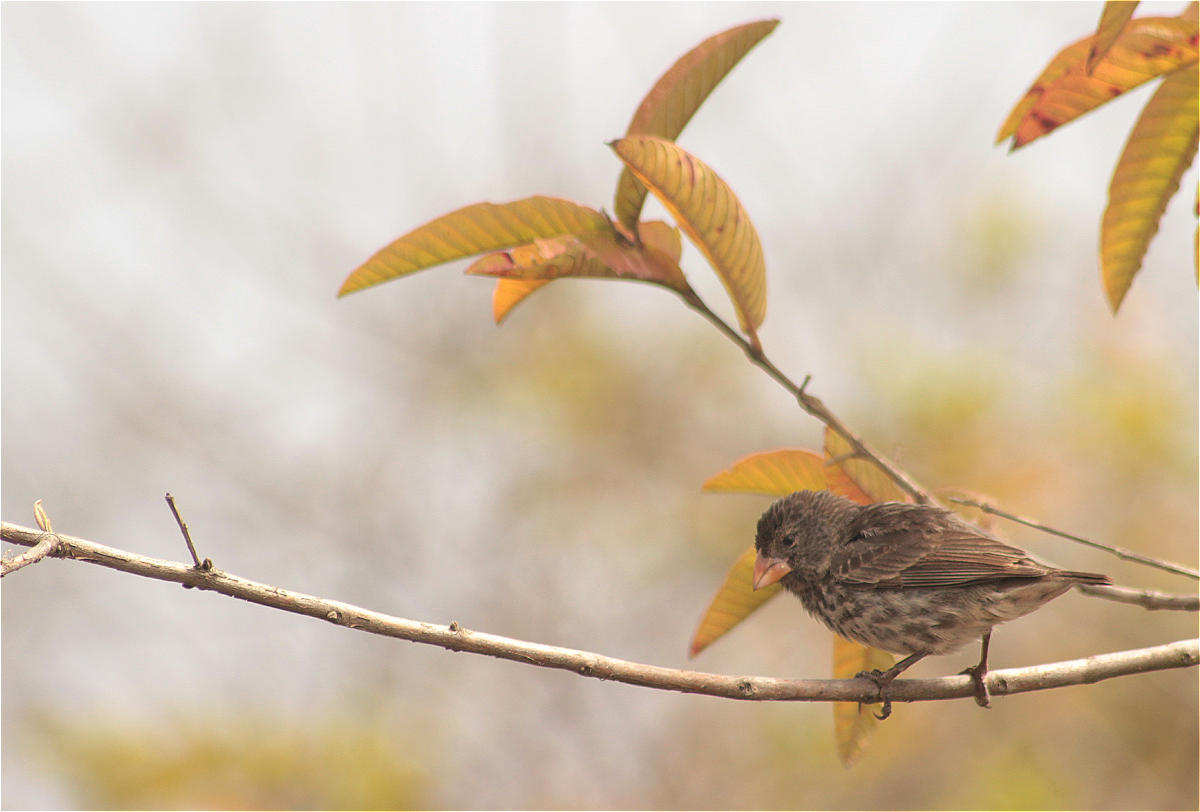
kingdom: Animalia
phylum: Chordata
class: Aves
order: Passeriformes
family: Thraupidae
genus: Geospiza
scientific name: Geospiza fuliginosa
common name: Small ground finch
